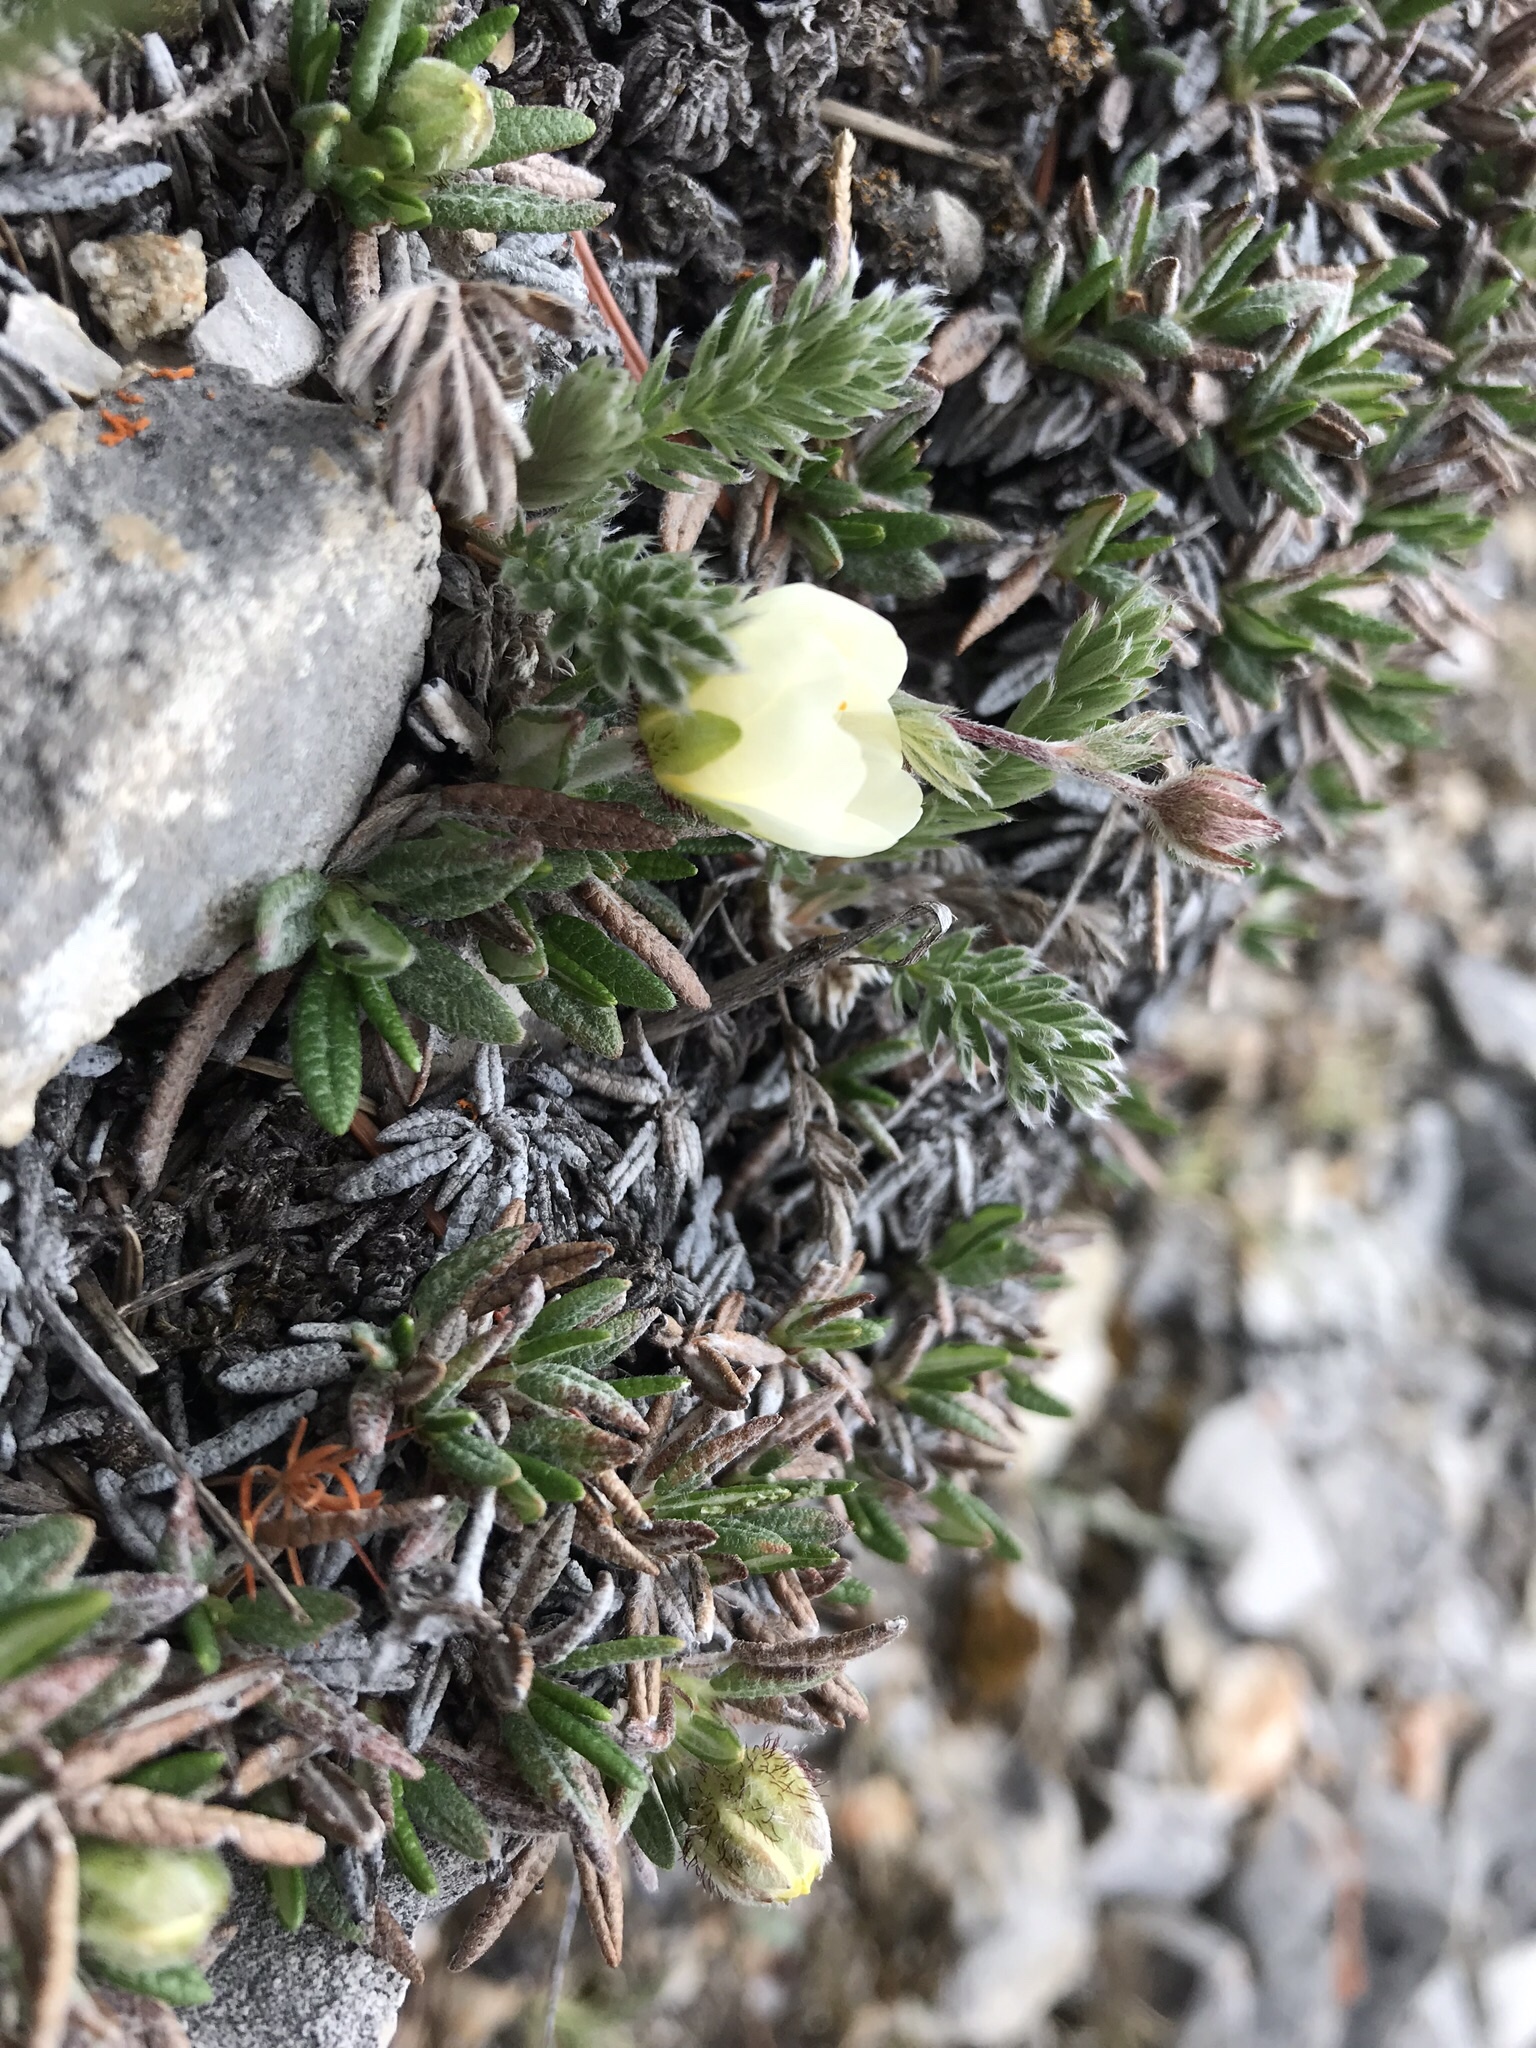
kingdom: Plantae
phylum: Tracheophyta
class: Magnoliopsida
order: Rosales
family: Rosaceae
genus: Dryas
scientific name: Dryas integrifolia
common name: Entire-leaved mountain avens
